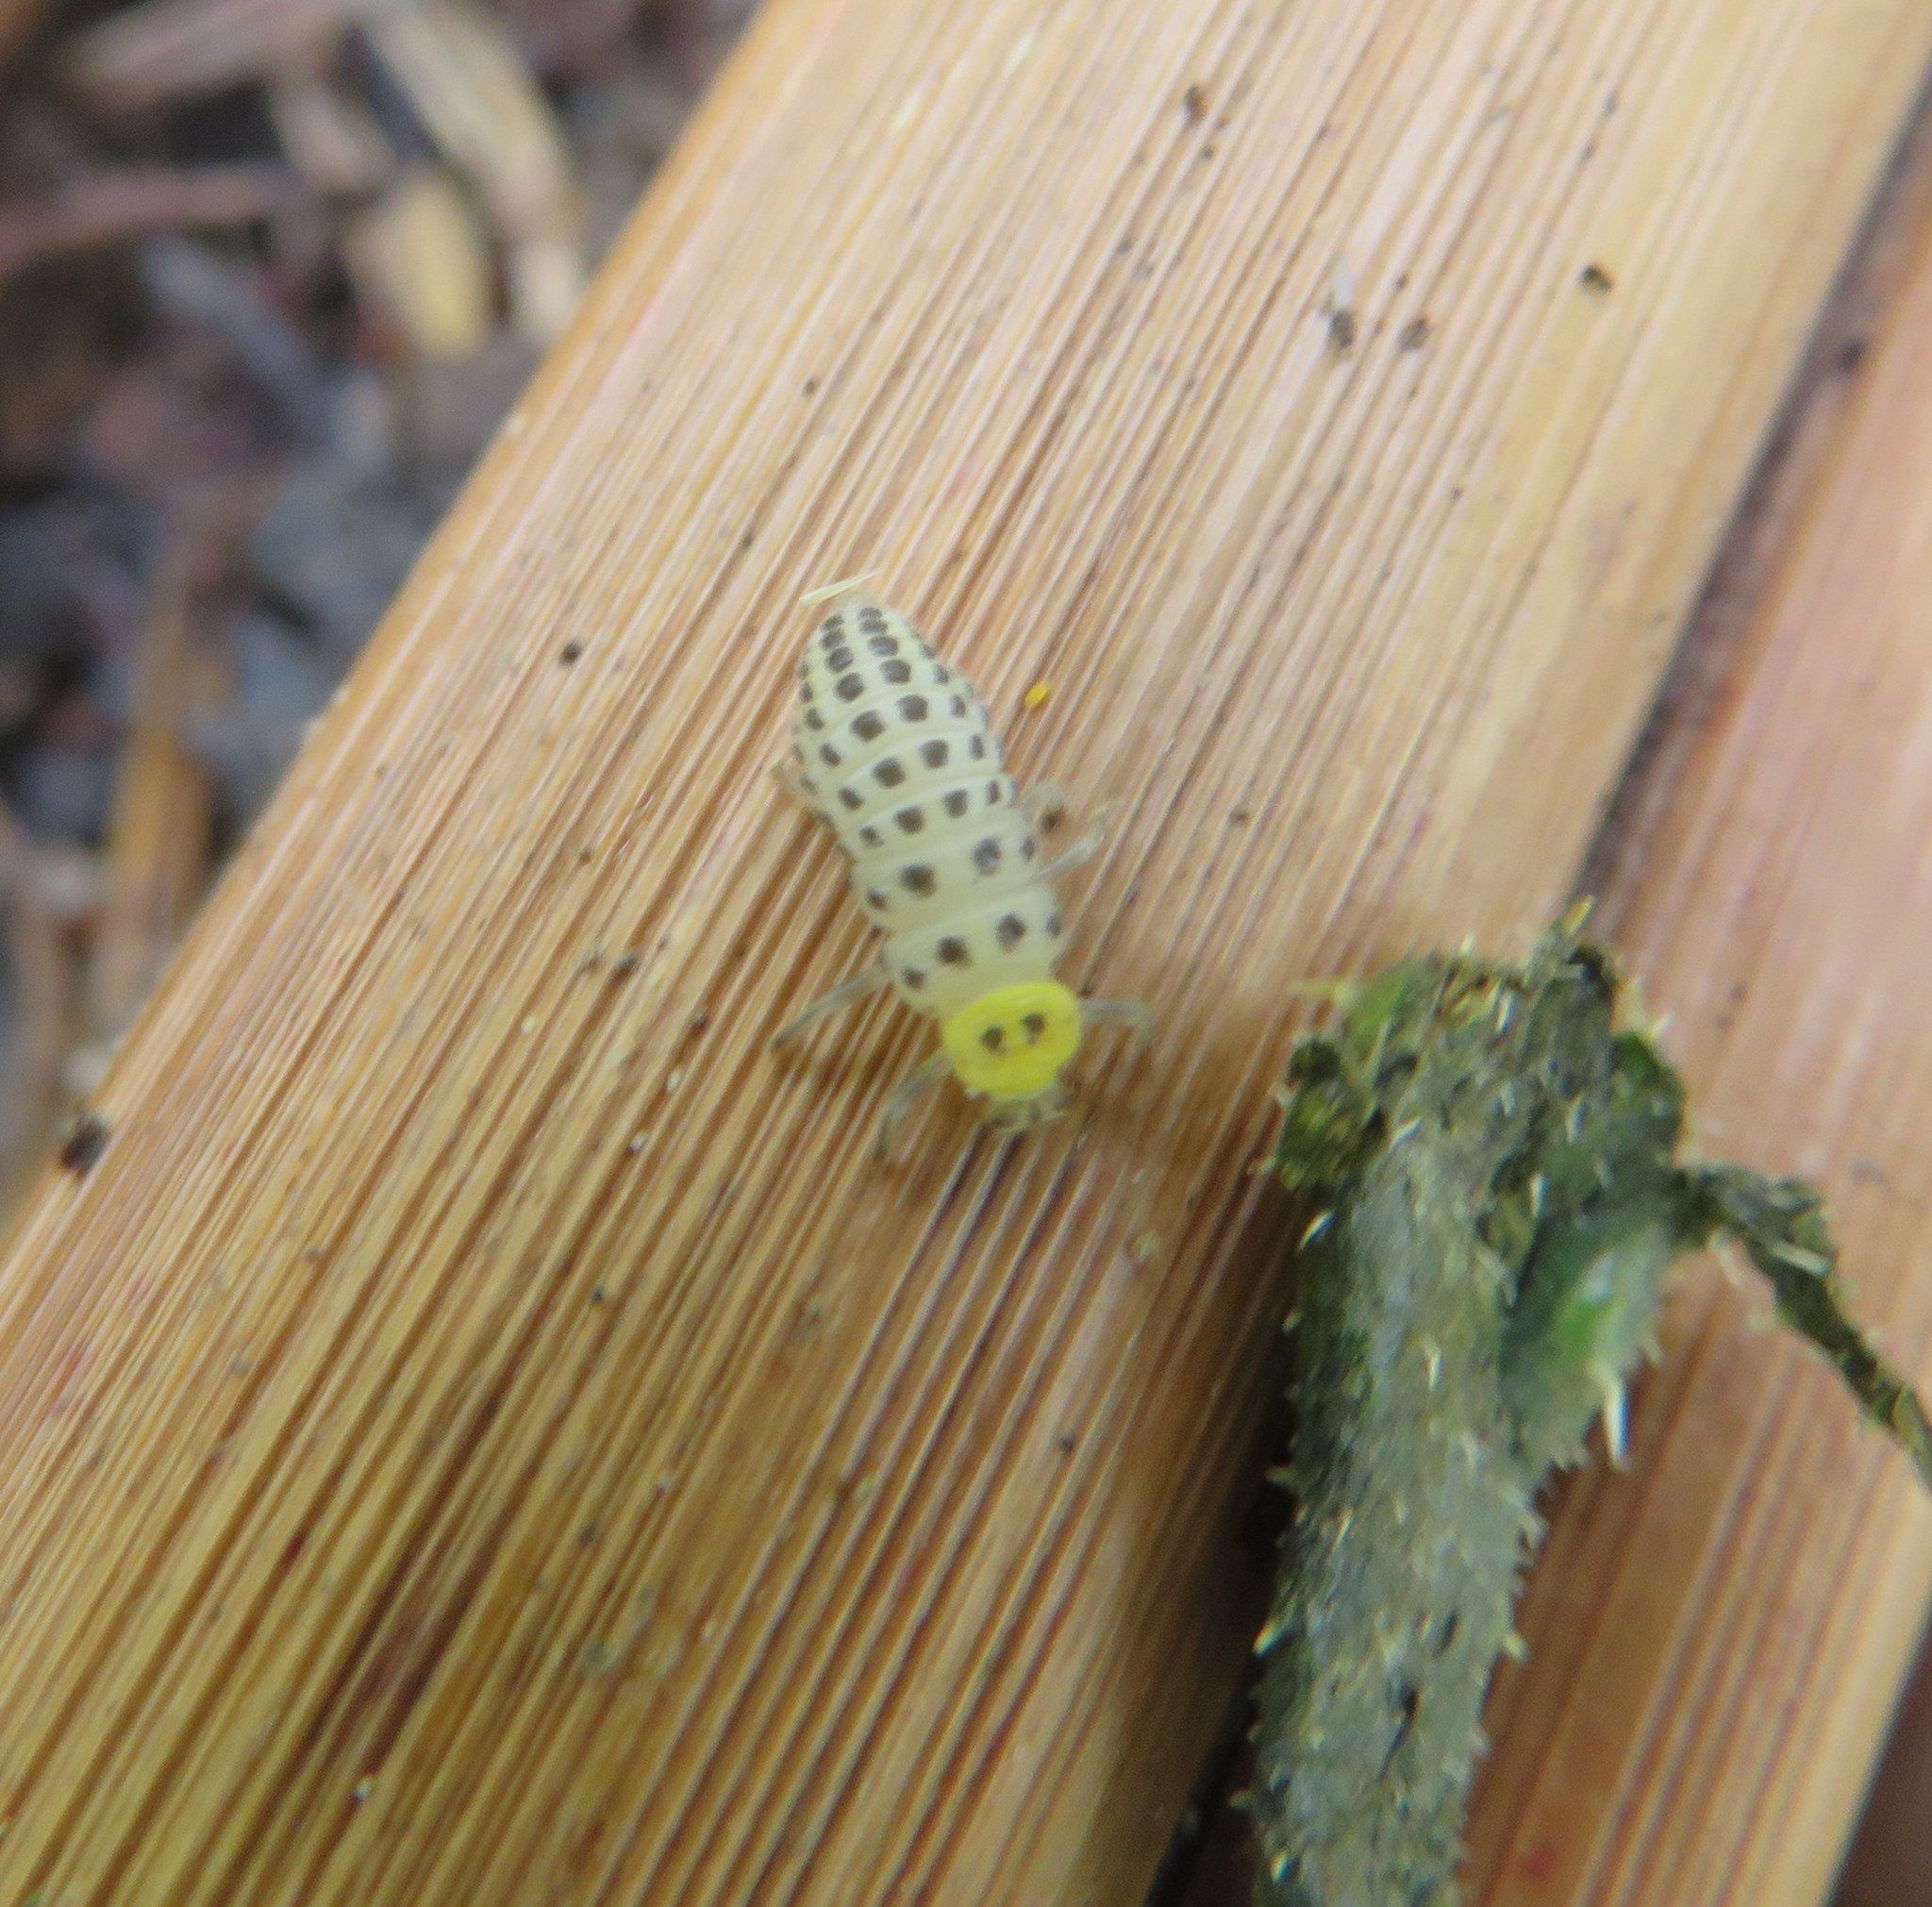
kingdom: Animalia
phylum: Arthropoda
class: Insecta
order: Coleoptera
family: Coccinellidae
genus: Illeis
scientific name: Illeis galbula
